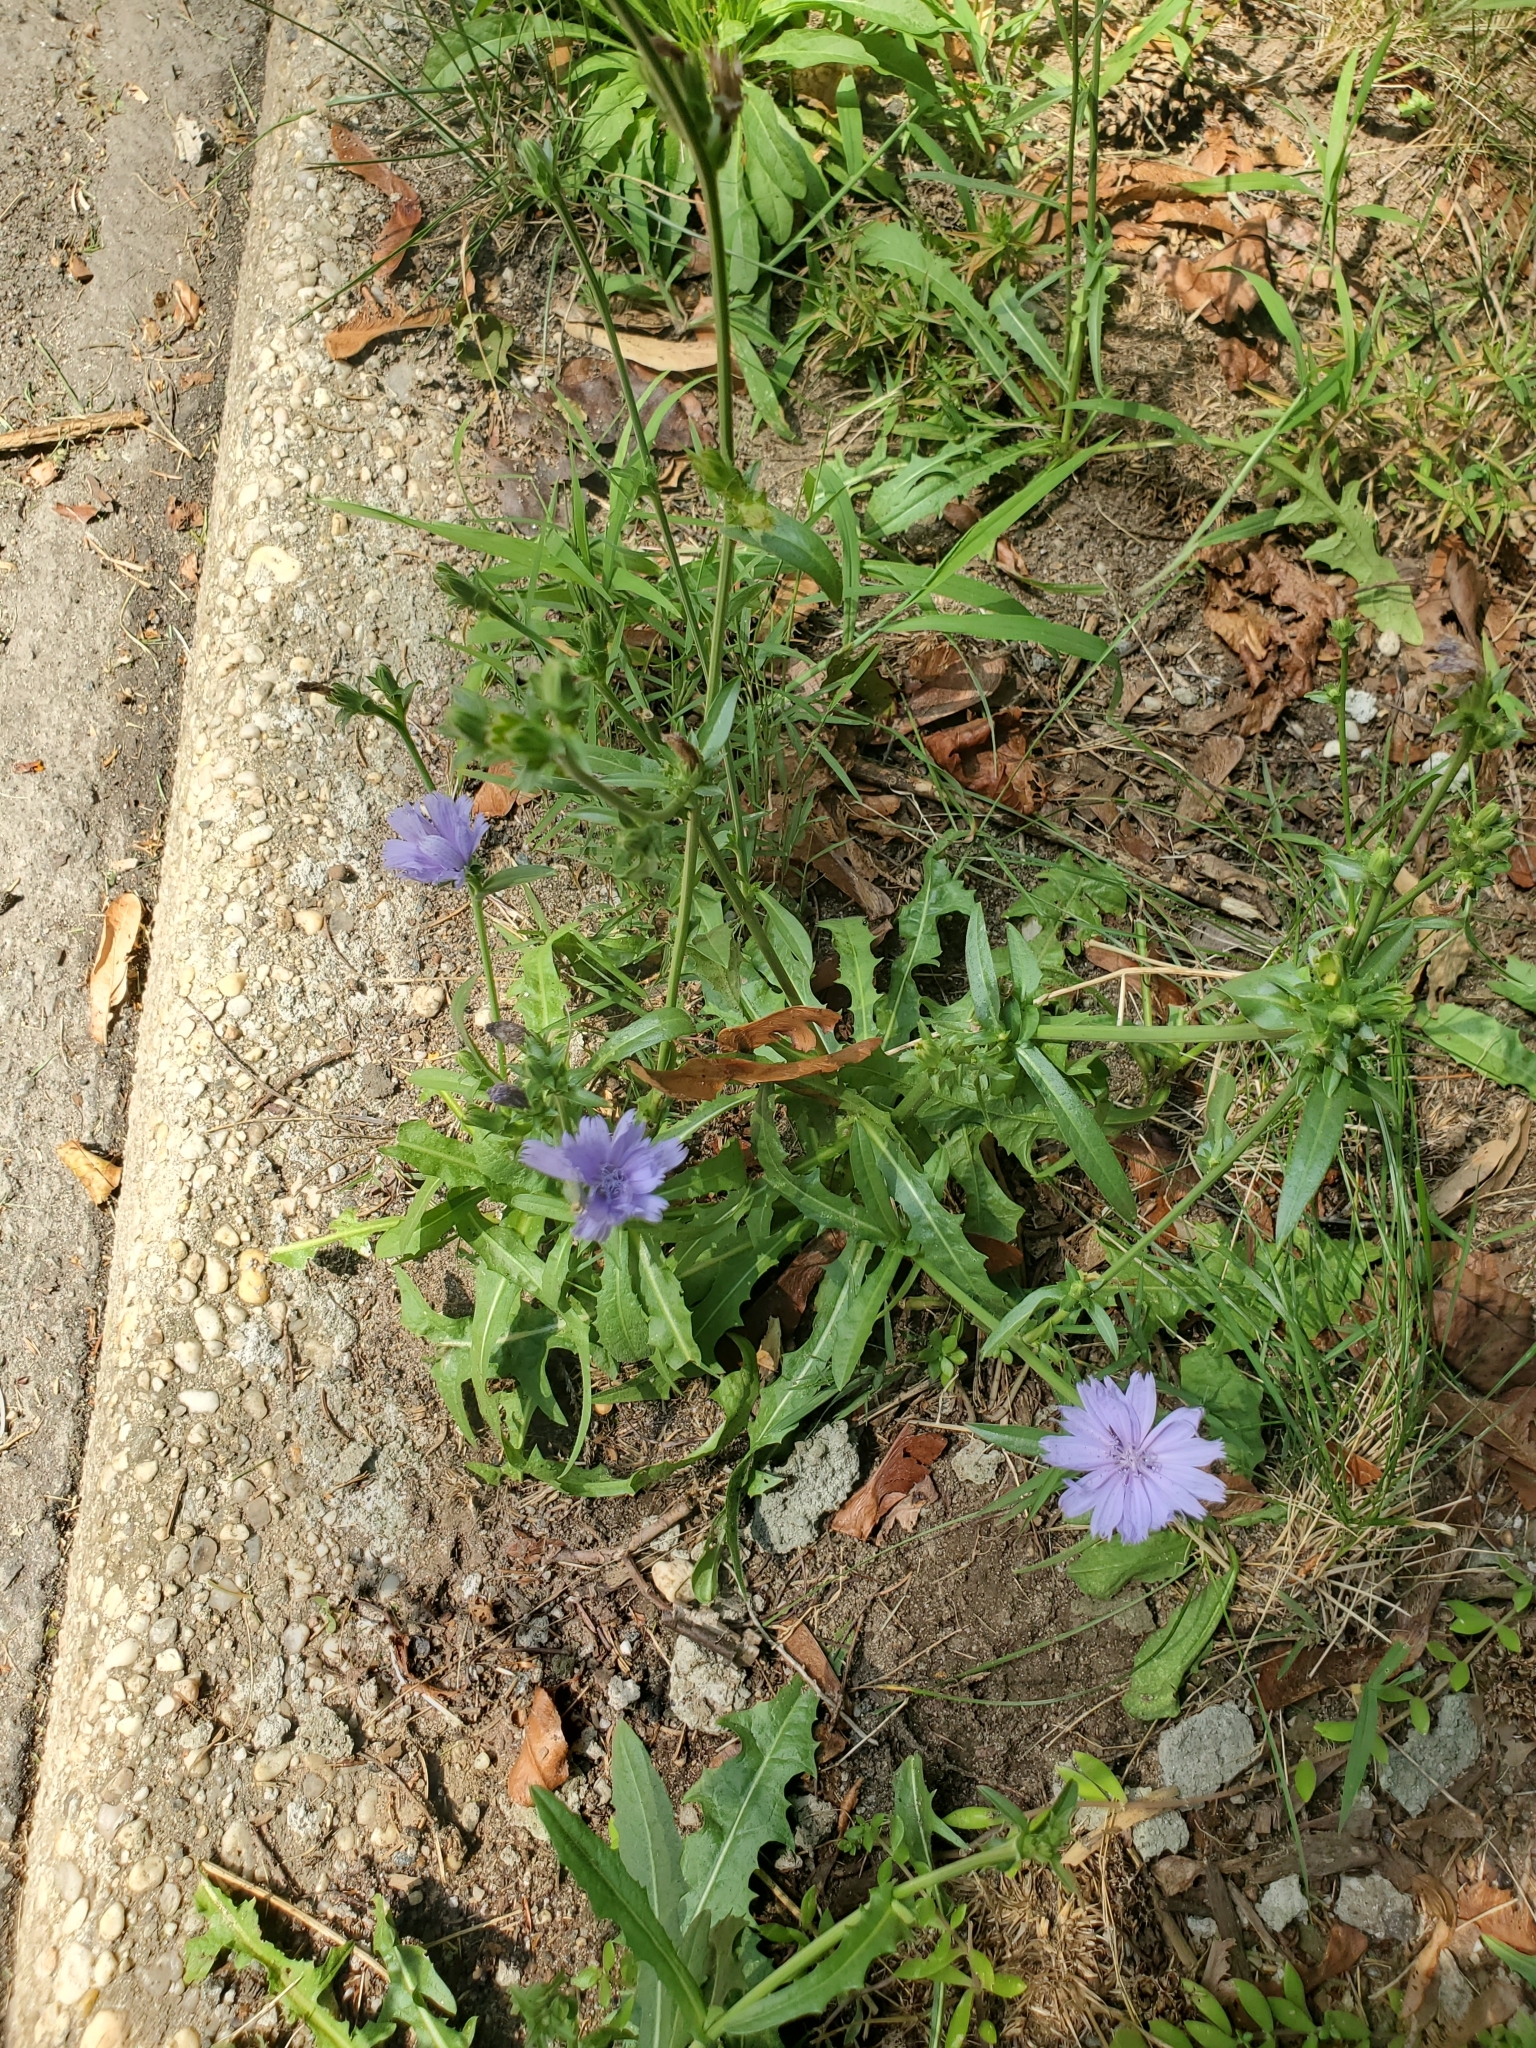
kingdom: Plantae
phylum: Tracheophyta
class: Magnoliopsida
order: Asterales
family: Asteraceae
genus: Cichorium
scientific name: Cichorium intybus
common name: Chicory
